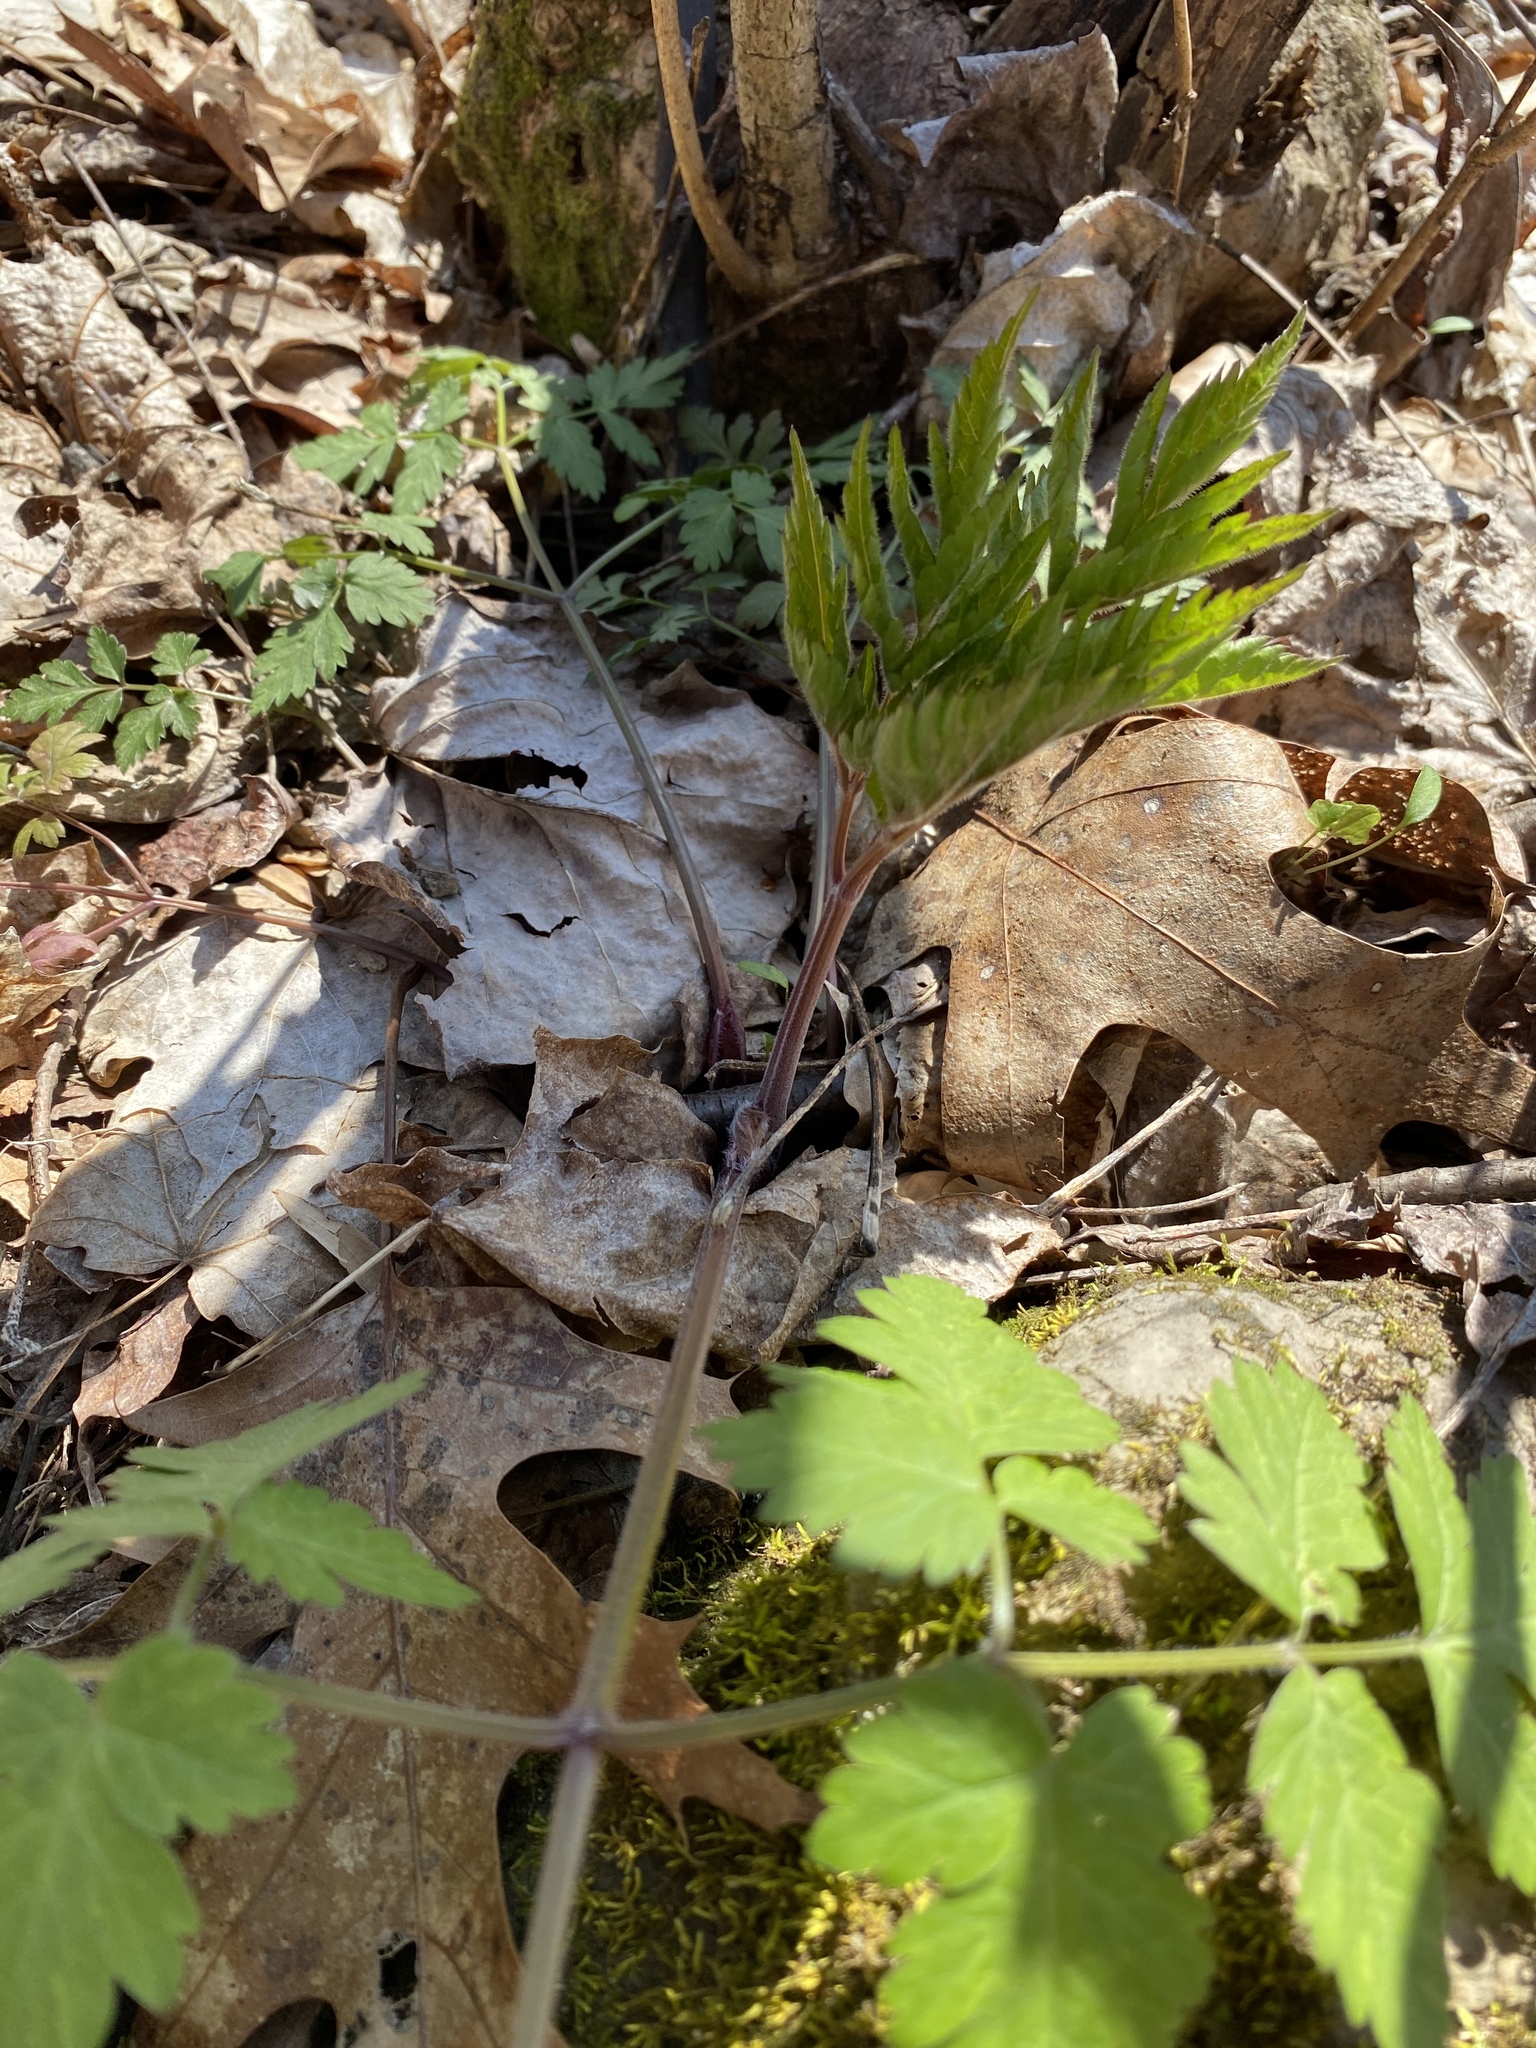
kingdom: Plantae
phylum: Tracheophyta
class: Magnoliopsida
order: Apiales
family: Apiaceae
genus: Osmorhiza
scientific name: Osmorhiza longistylis
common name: Smooth sweet cicely
